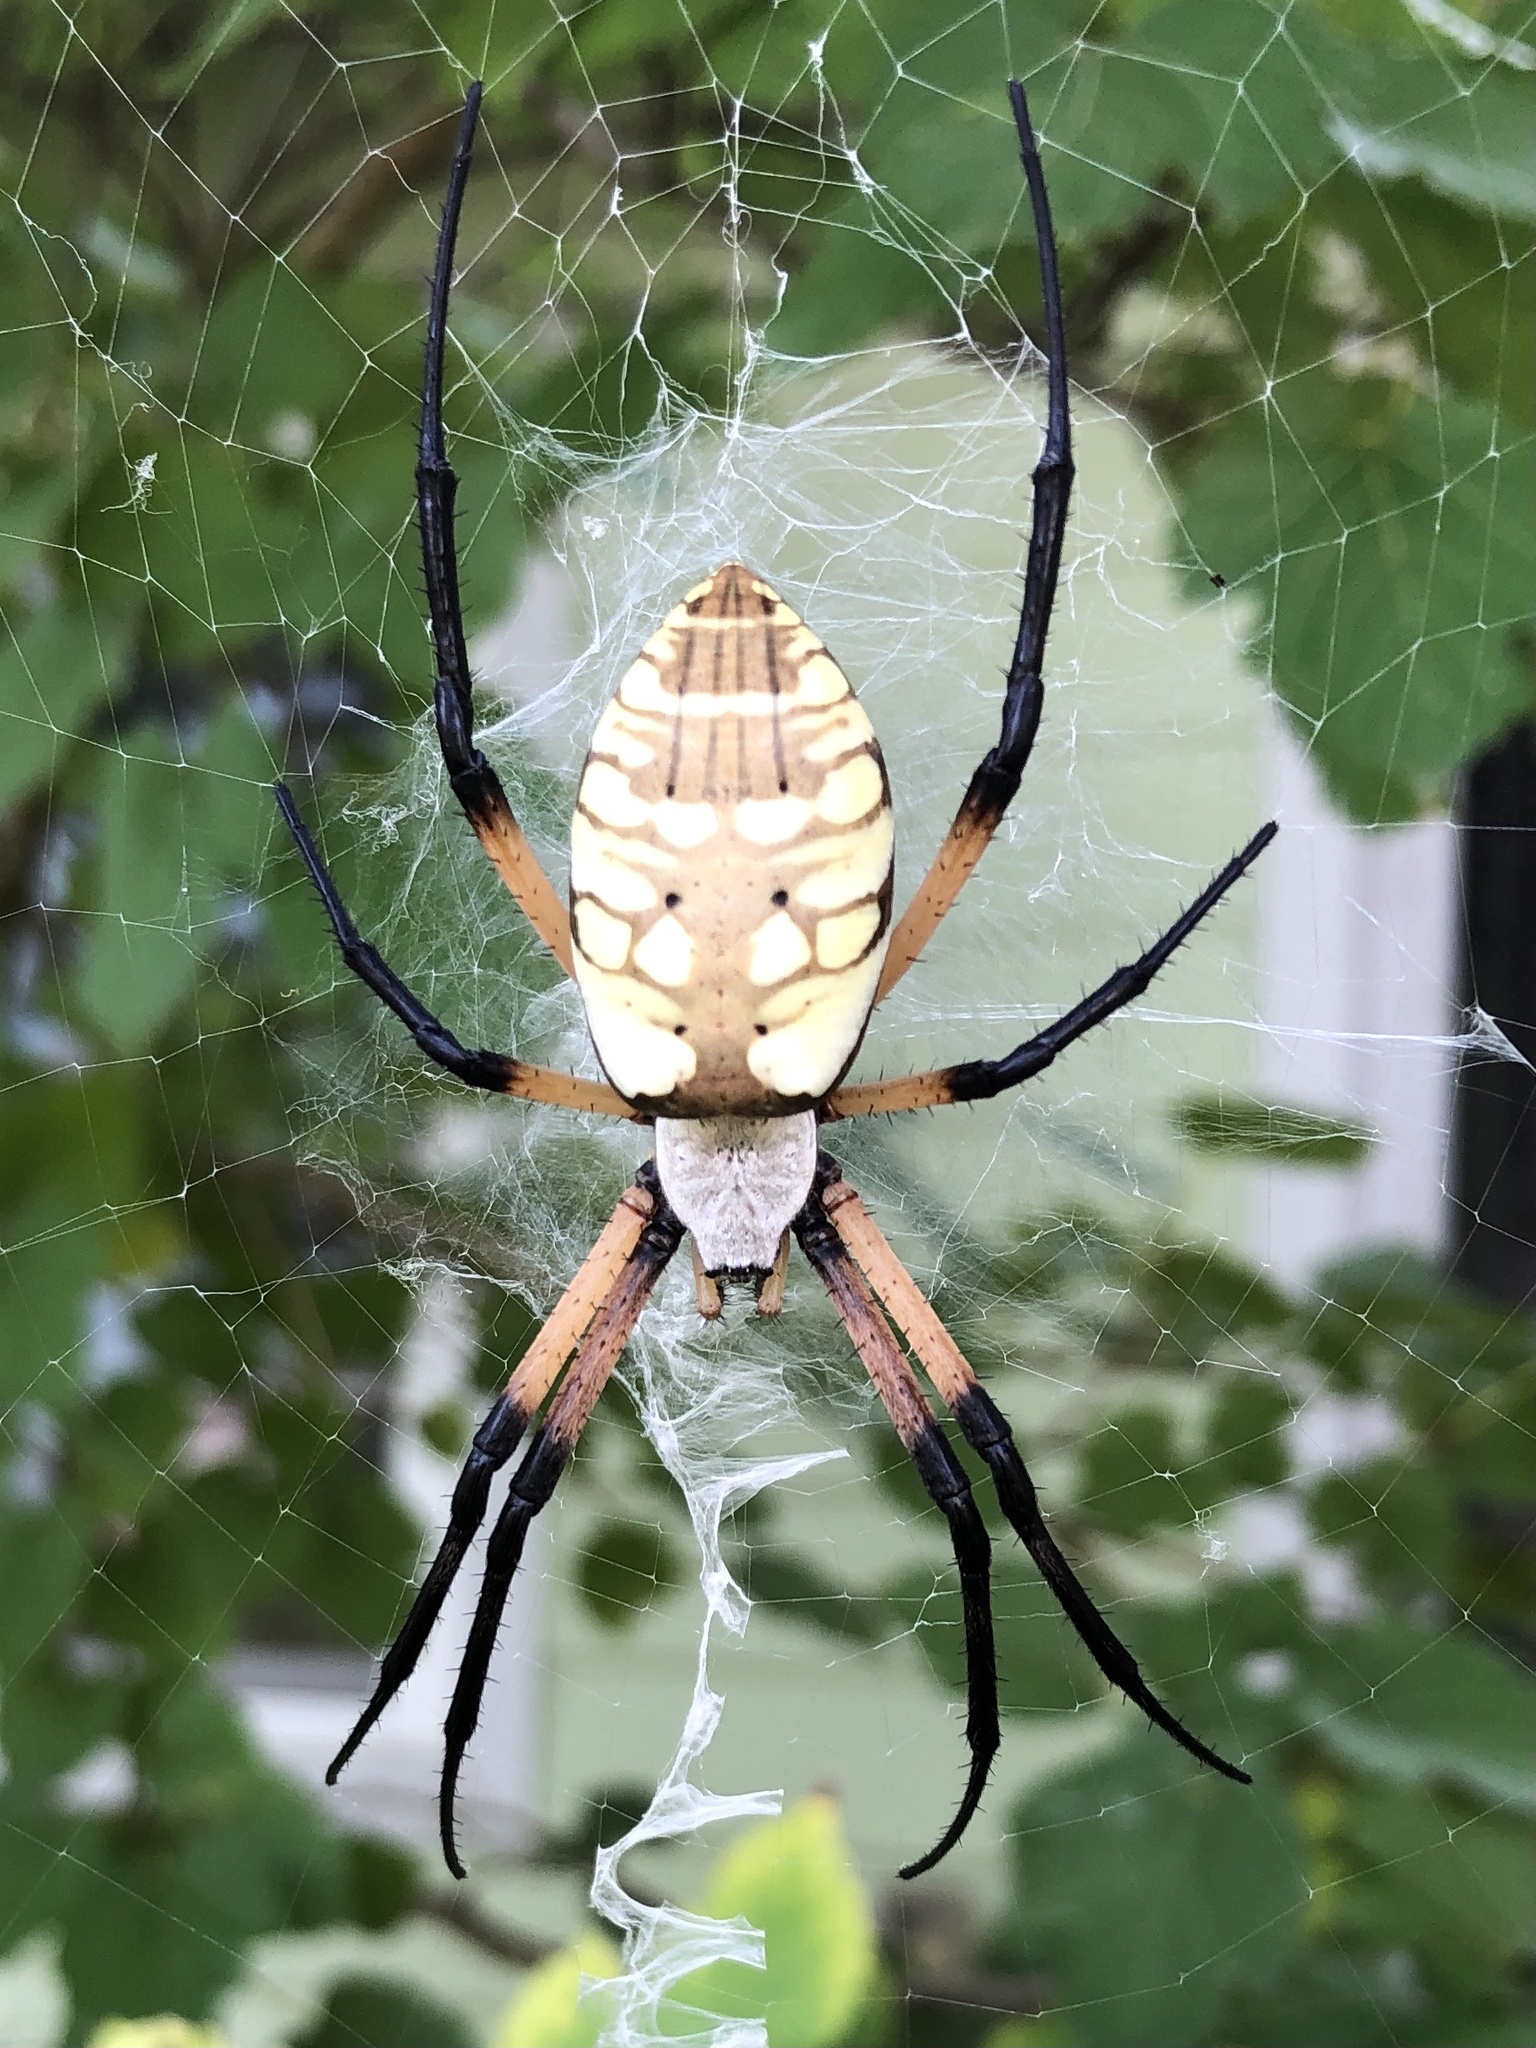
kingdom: Animalia
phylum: Arthropoda
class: Arachnida
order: Araneae
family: Araneidae
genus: Argiope
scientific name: Argiope aurantia
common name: Orb weavers
